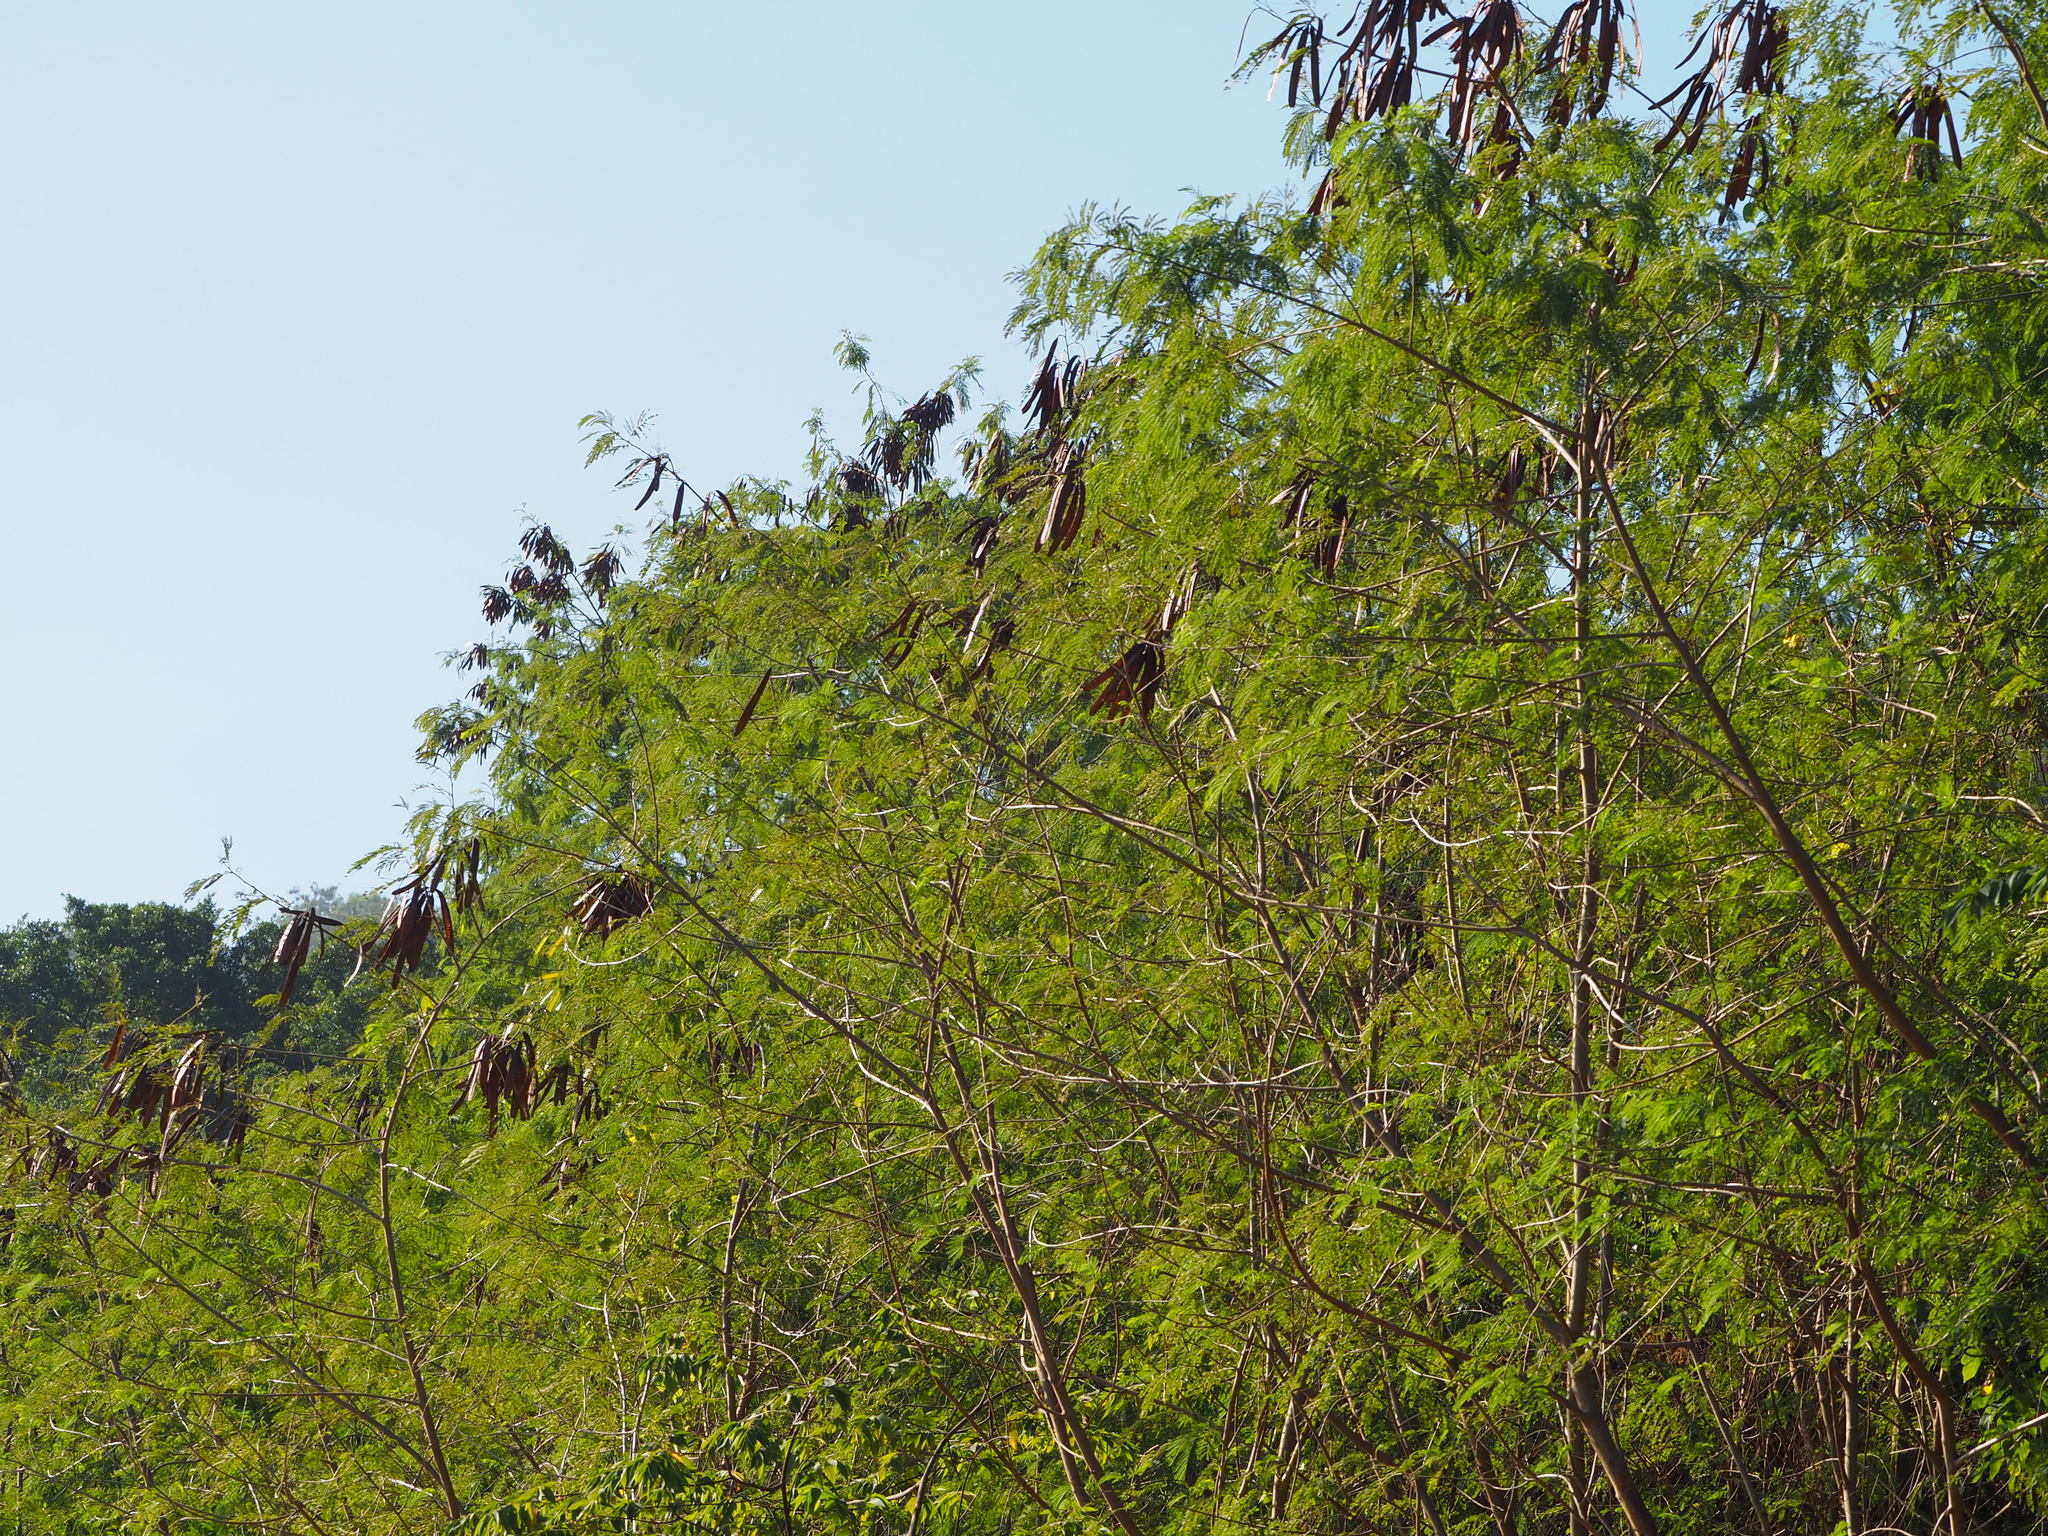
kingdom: Plantae
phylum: Tracheophyta
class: Magnoliopsida
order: Fabales
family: Fabaceae
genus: Leucaena
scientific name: Leucaena leucocephala
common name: White leadtree
